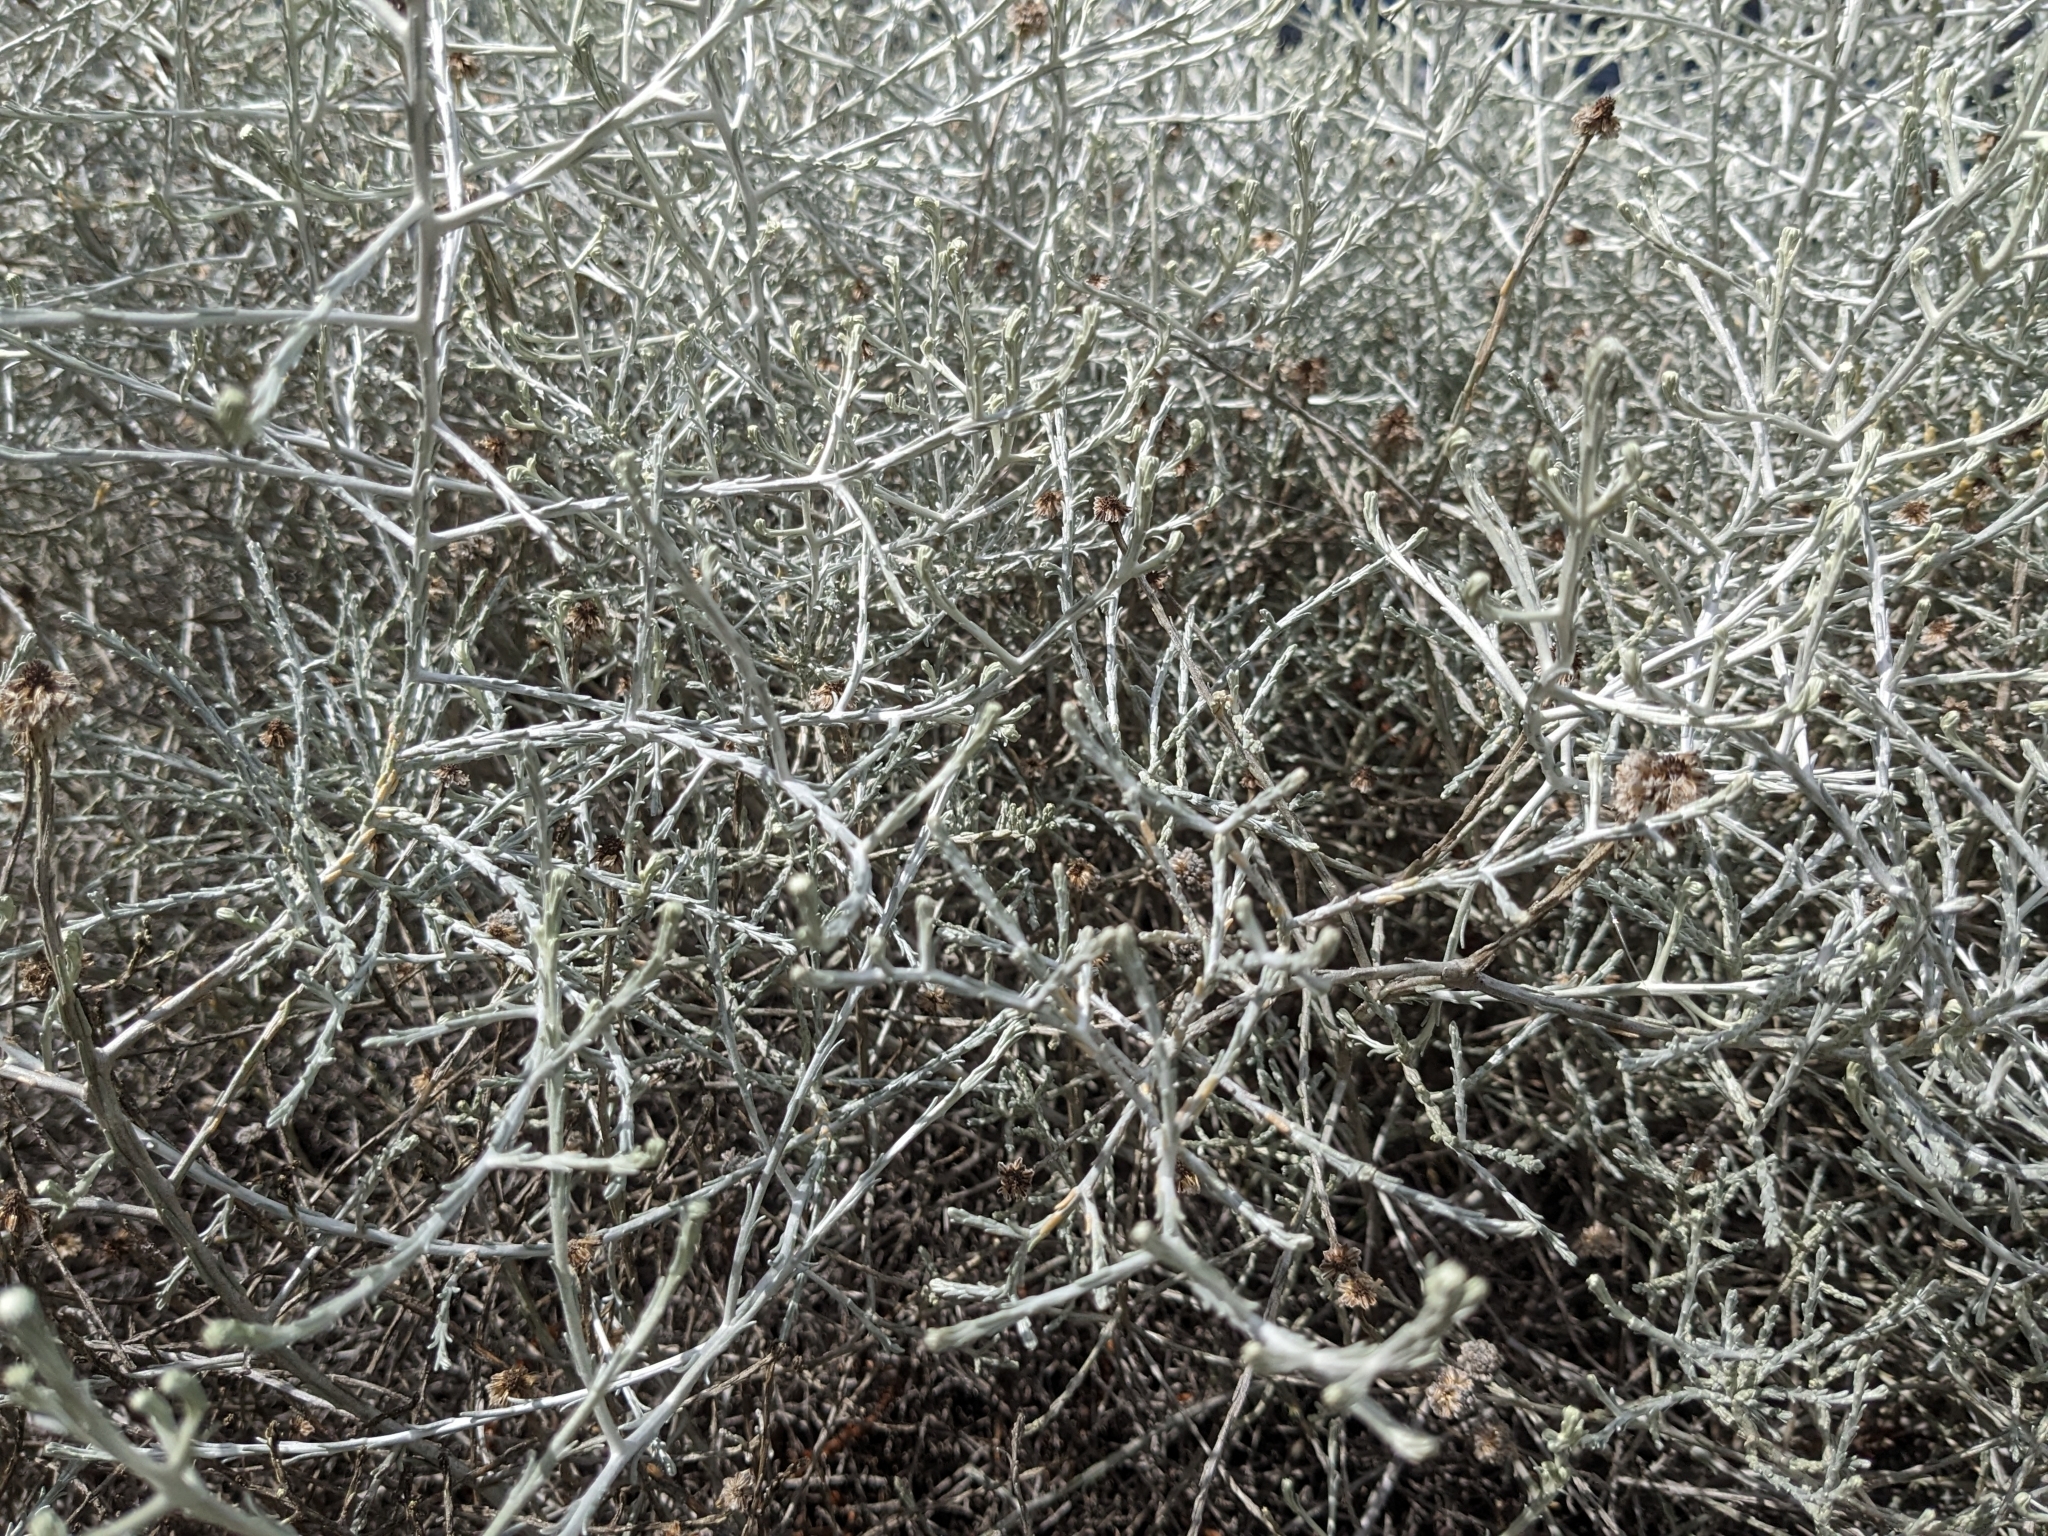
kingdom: Plantae
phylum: Tracheophyta
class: Magnoliopsida
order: Asterales
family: Asteraceae
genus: Calocephalus
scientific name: Calocephalus brownii
